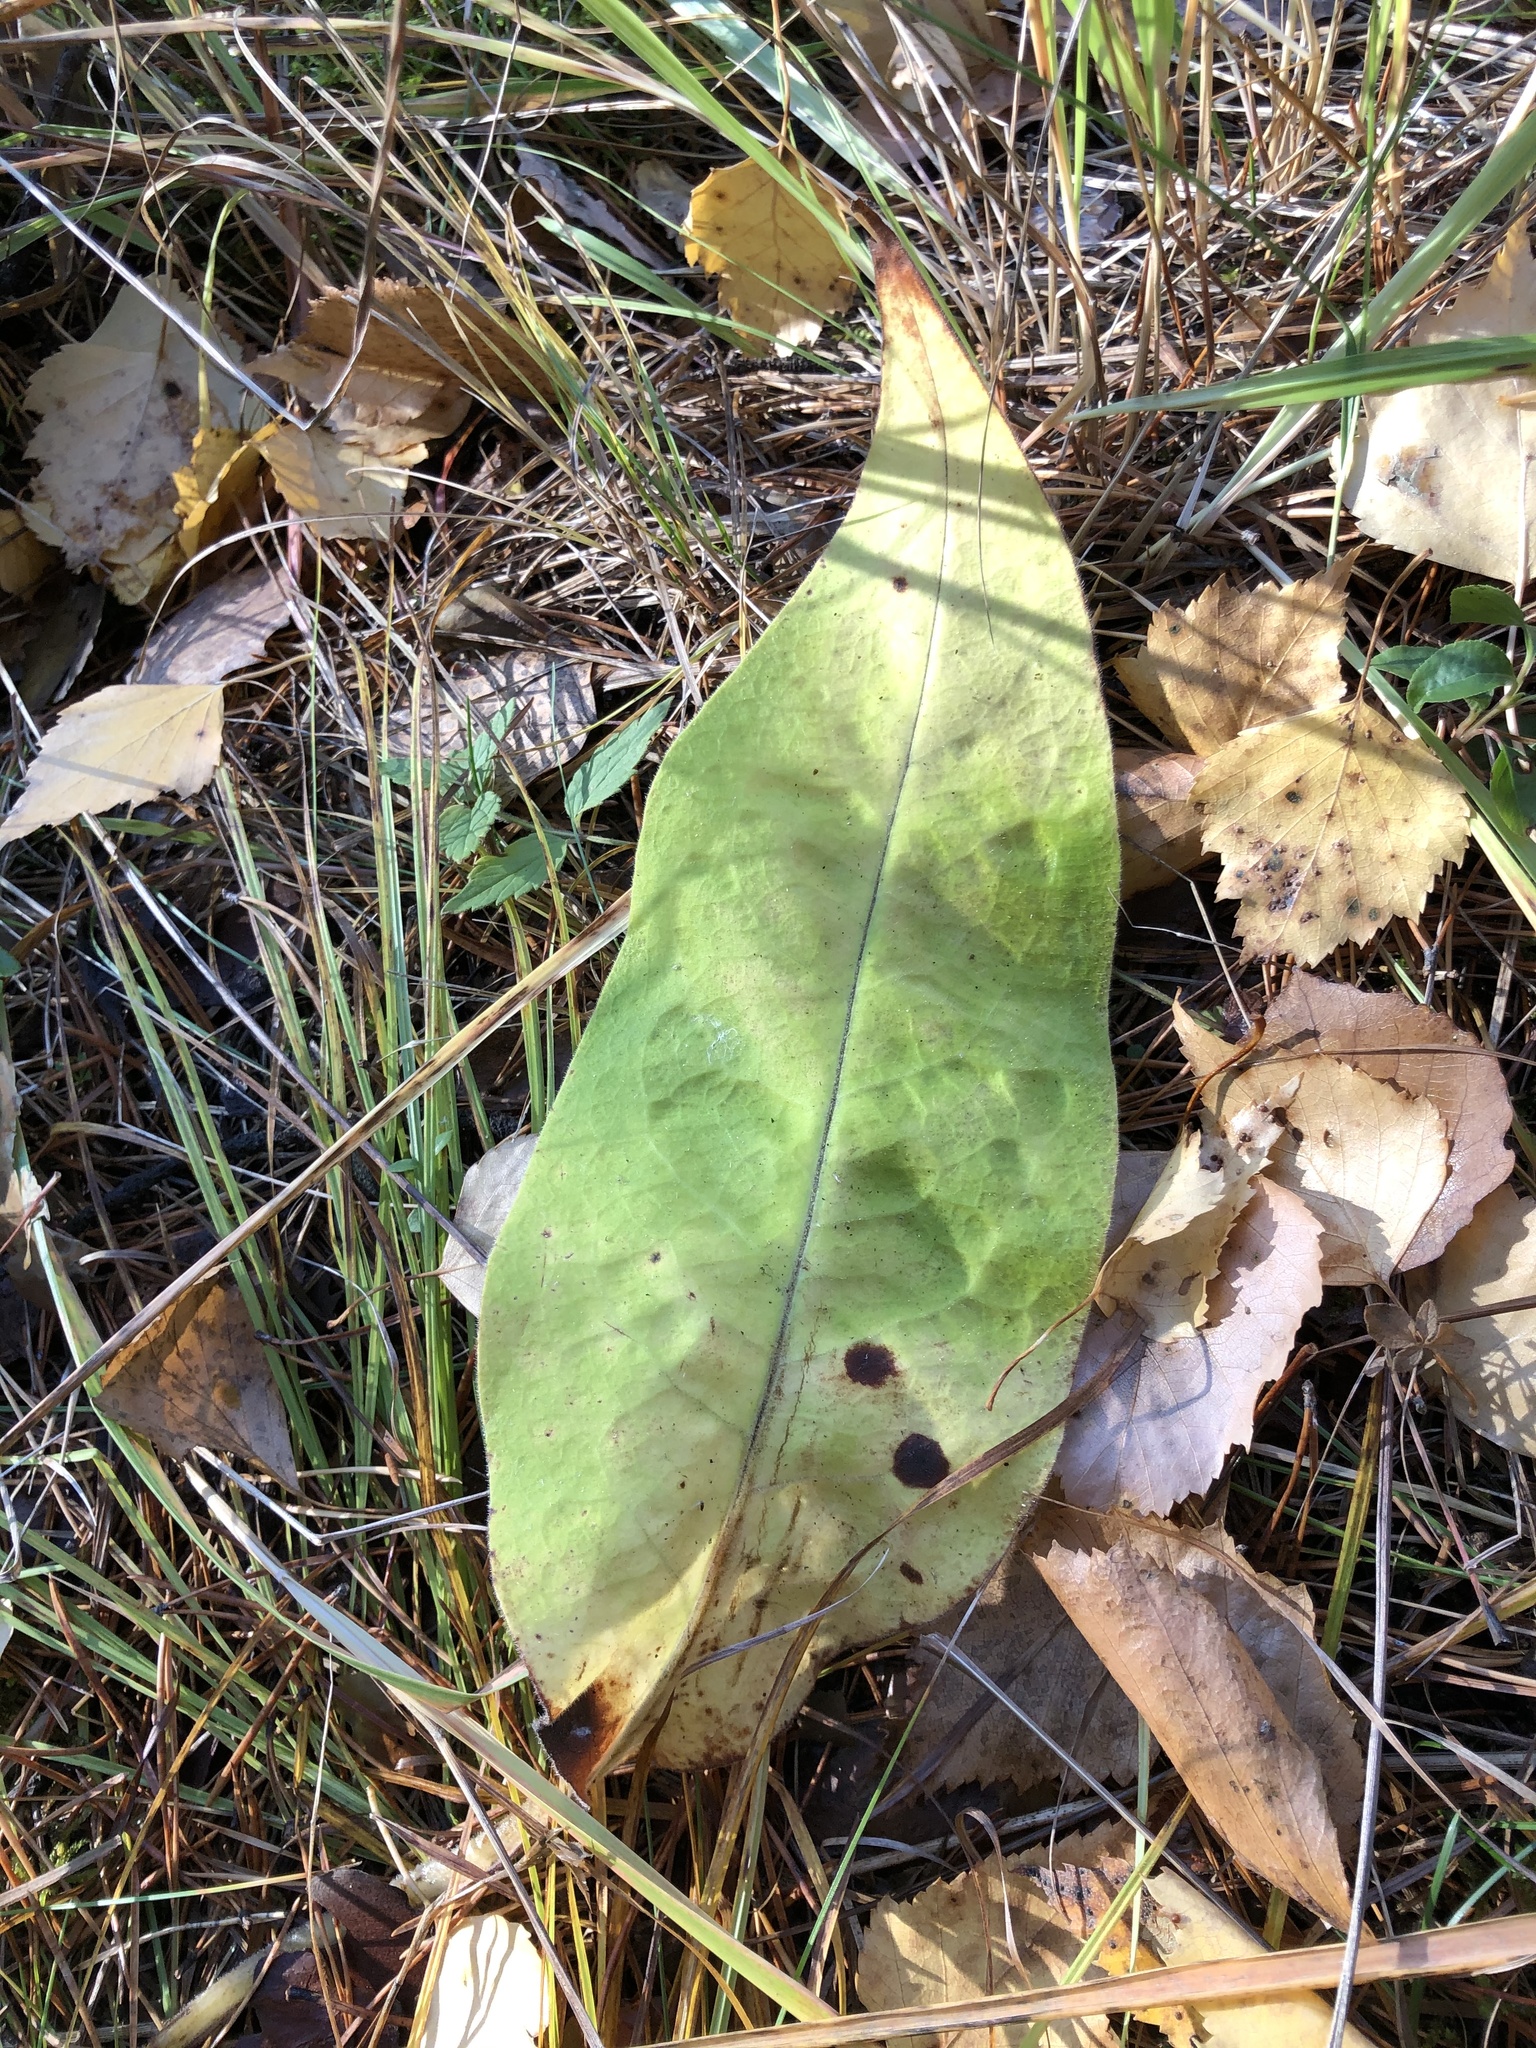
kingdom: Plantae
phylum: Tracheophyta
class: Magnoliopsida
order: Boraginales
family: Boraginaceae
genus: Pulmonaria
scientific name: Pulmonaria mollis
